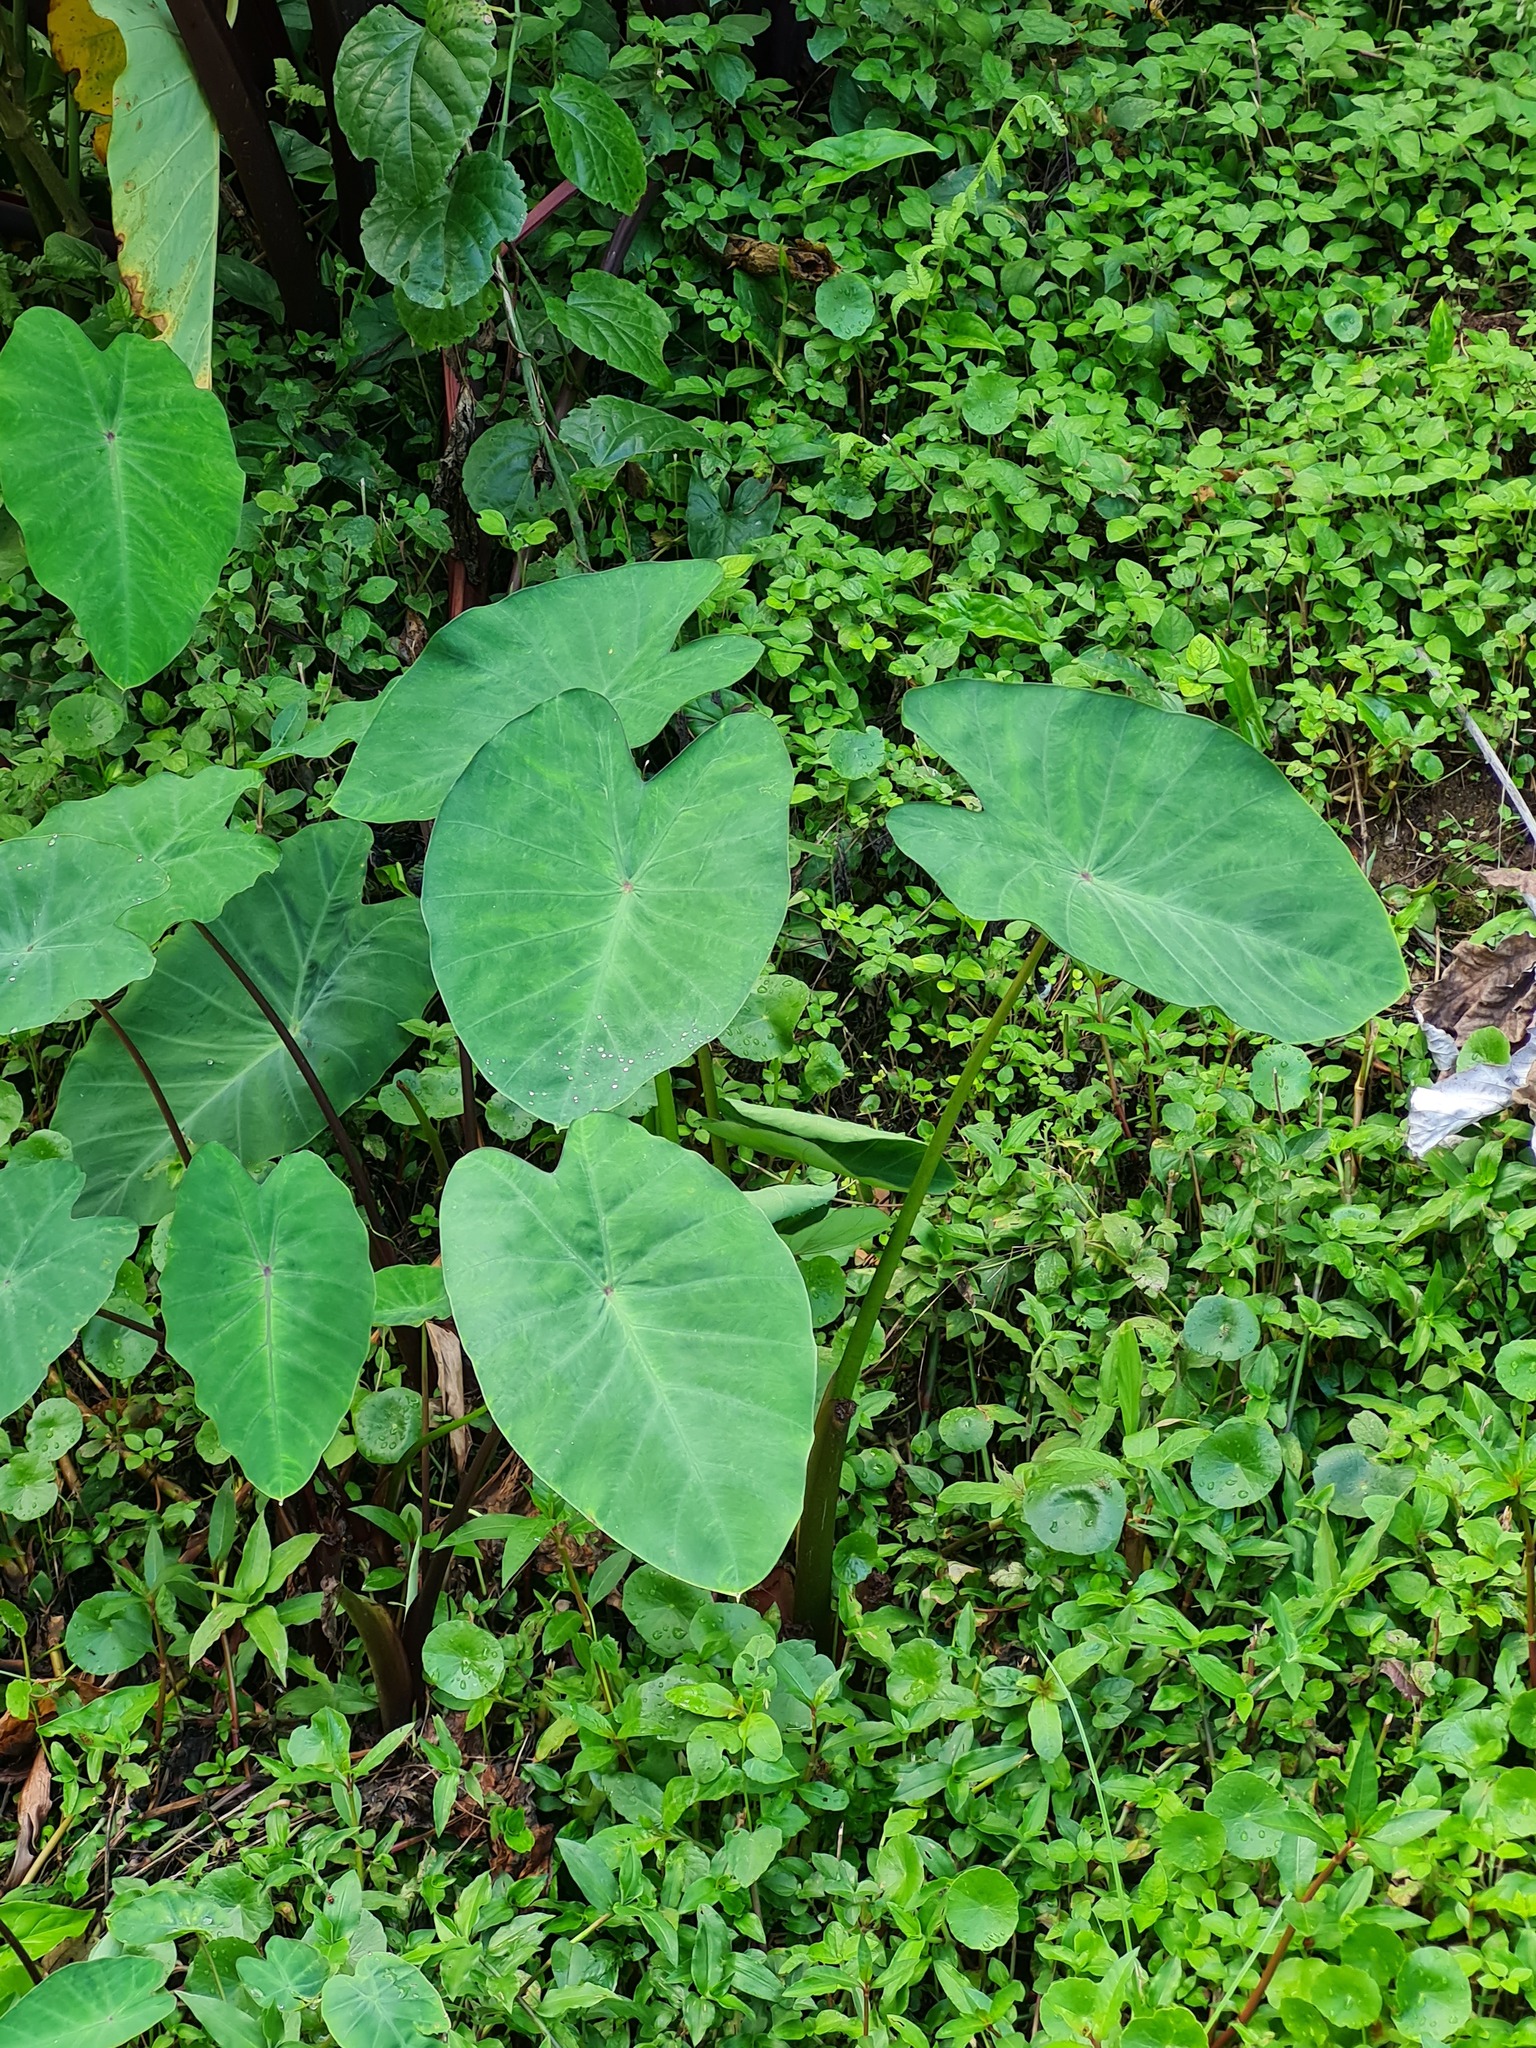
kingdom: Plantae
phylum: Tracheophyta
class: Liliopsida
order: Alismatales
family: Araceae
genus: Colocasia
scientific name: Colocasia esculenta
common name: Taro
